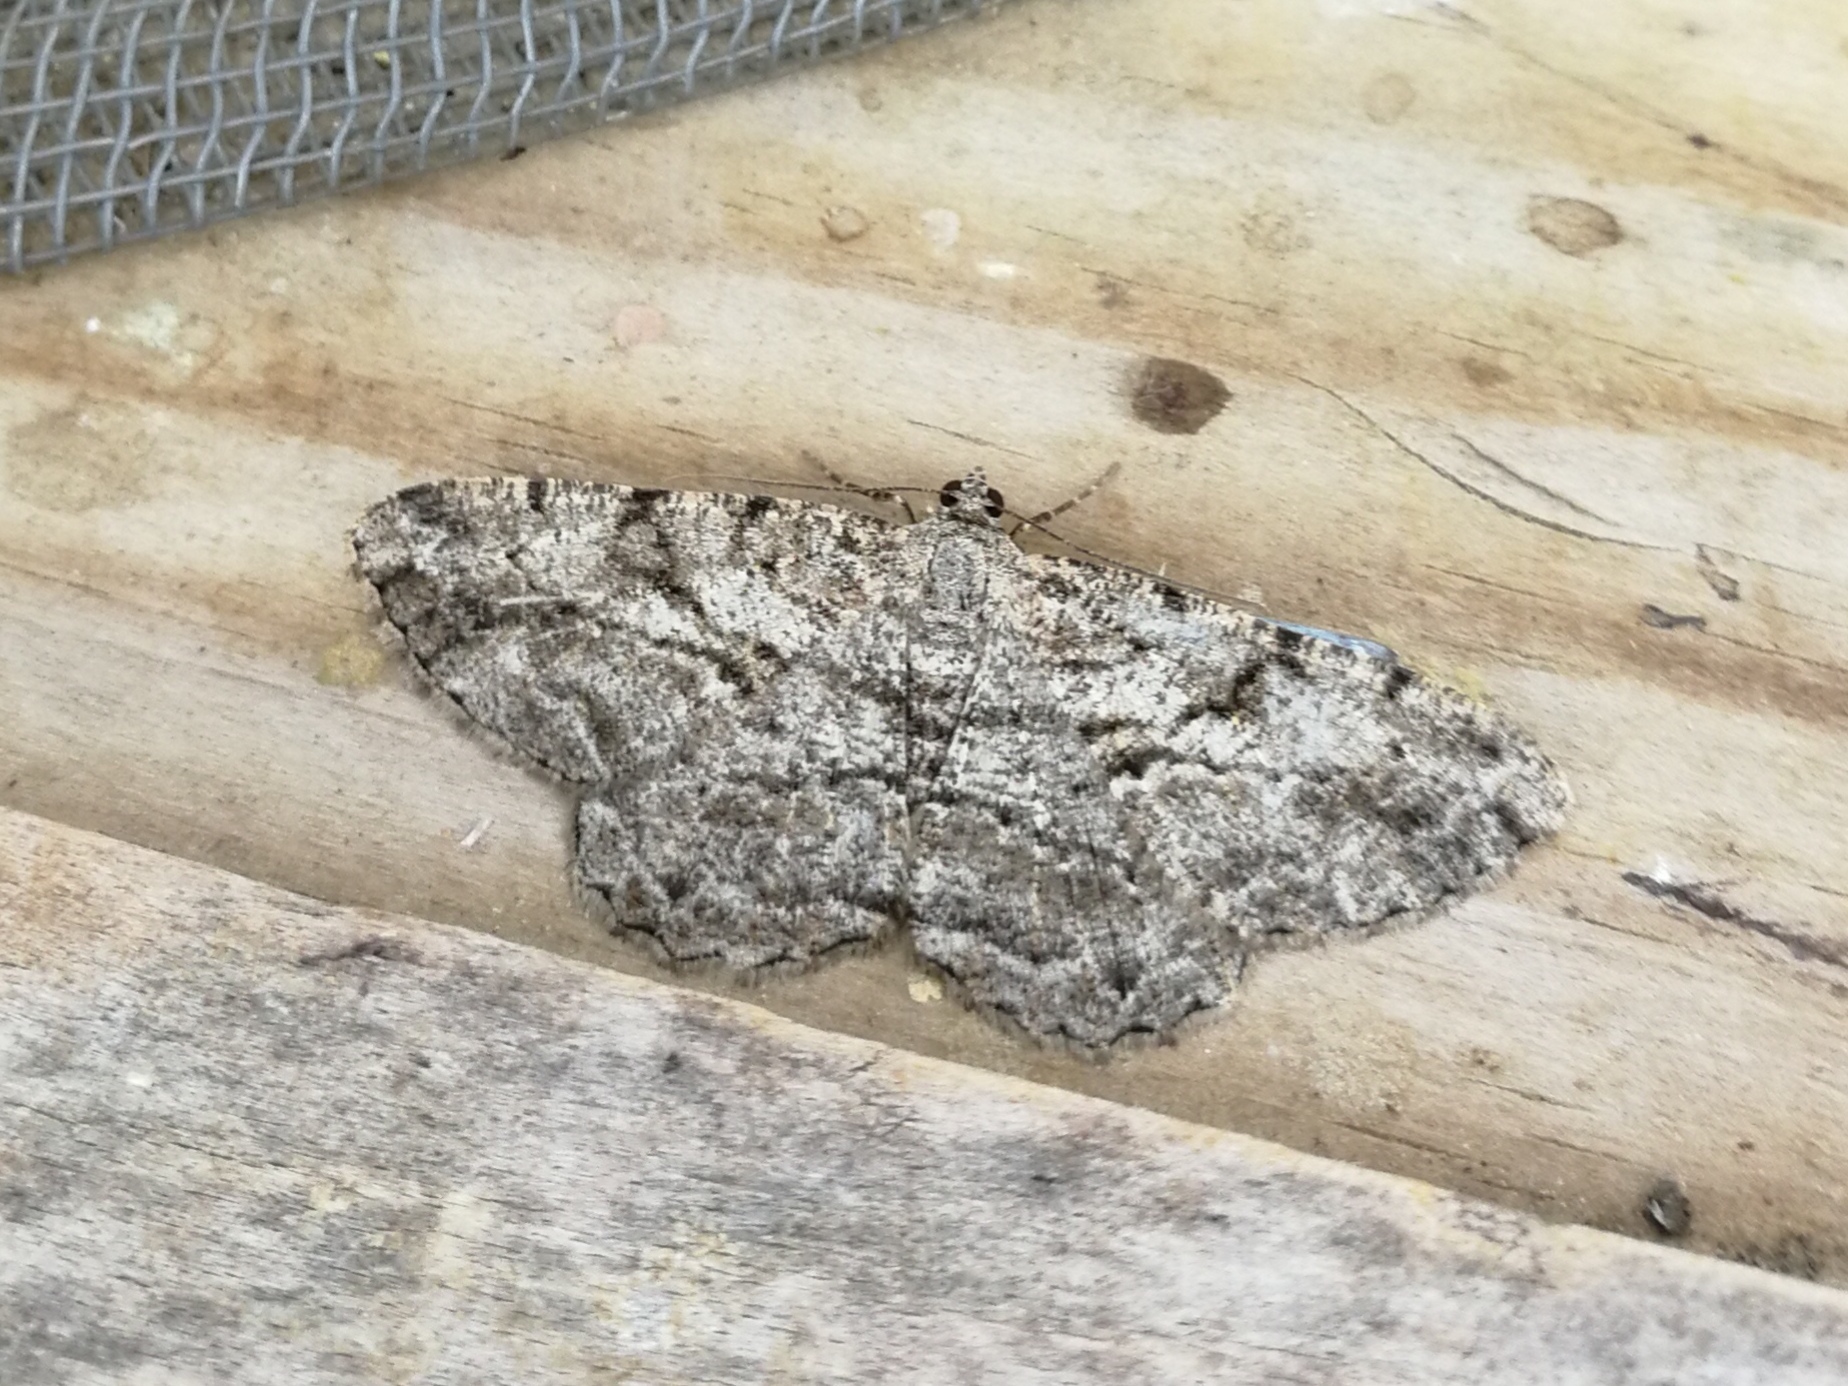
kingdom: Animalia
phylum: Arthropoda
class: Insecta
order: Lepidoptera
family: Geometridae
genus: Peribatodes
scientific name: Peribatodes rhomboidaria
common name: Willow beauty
